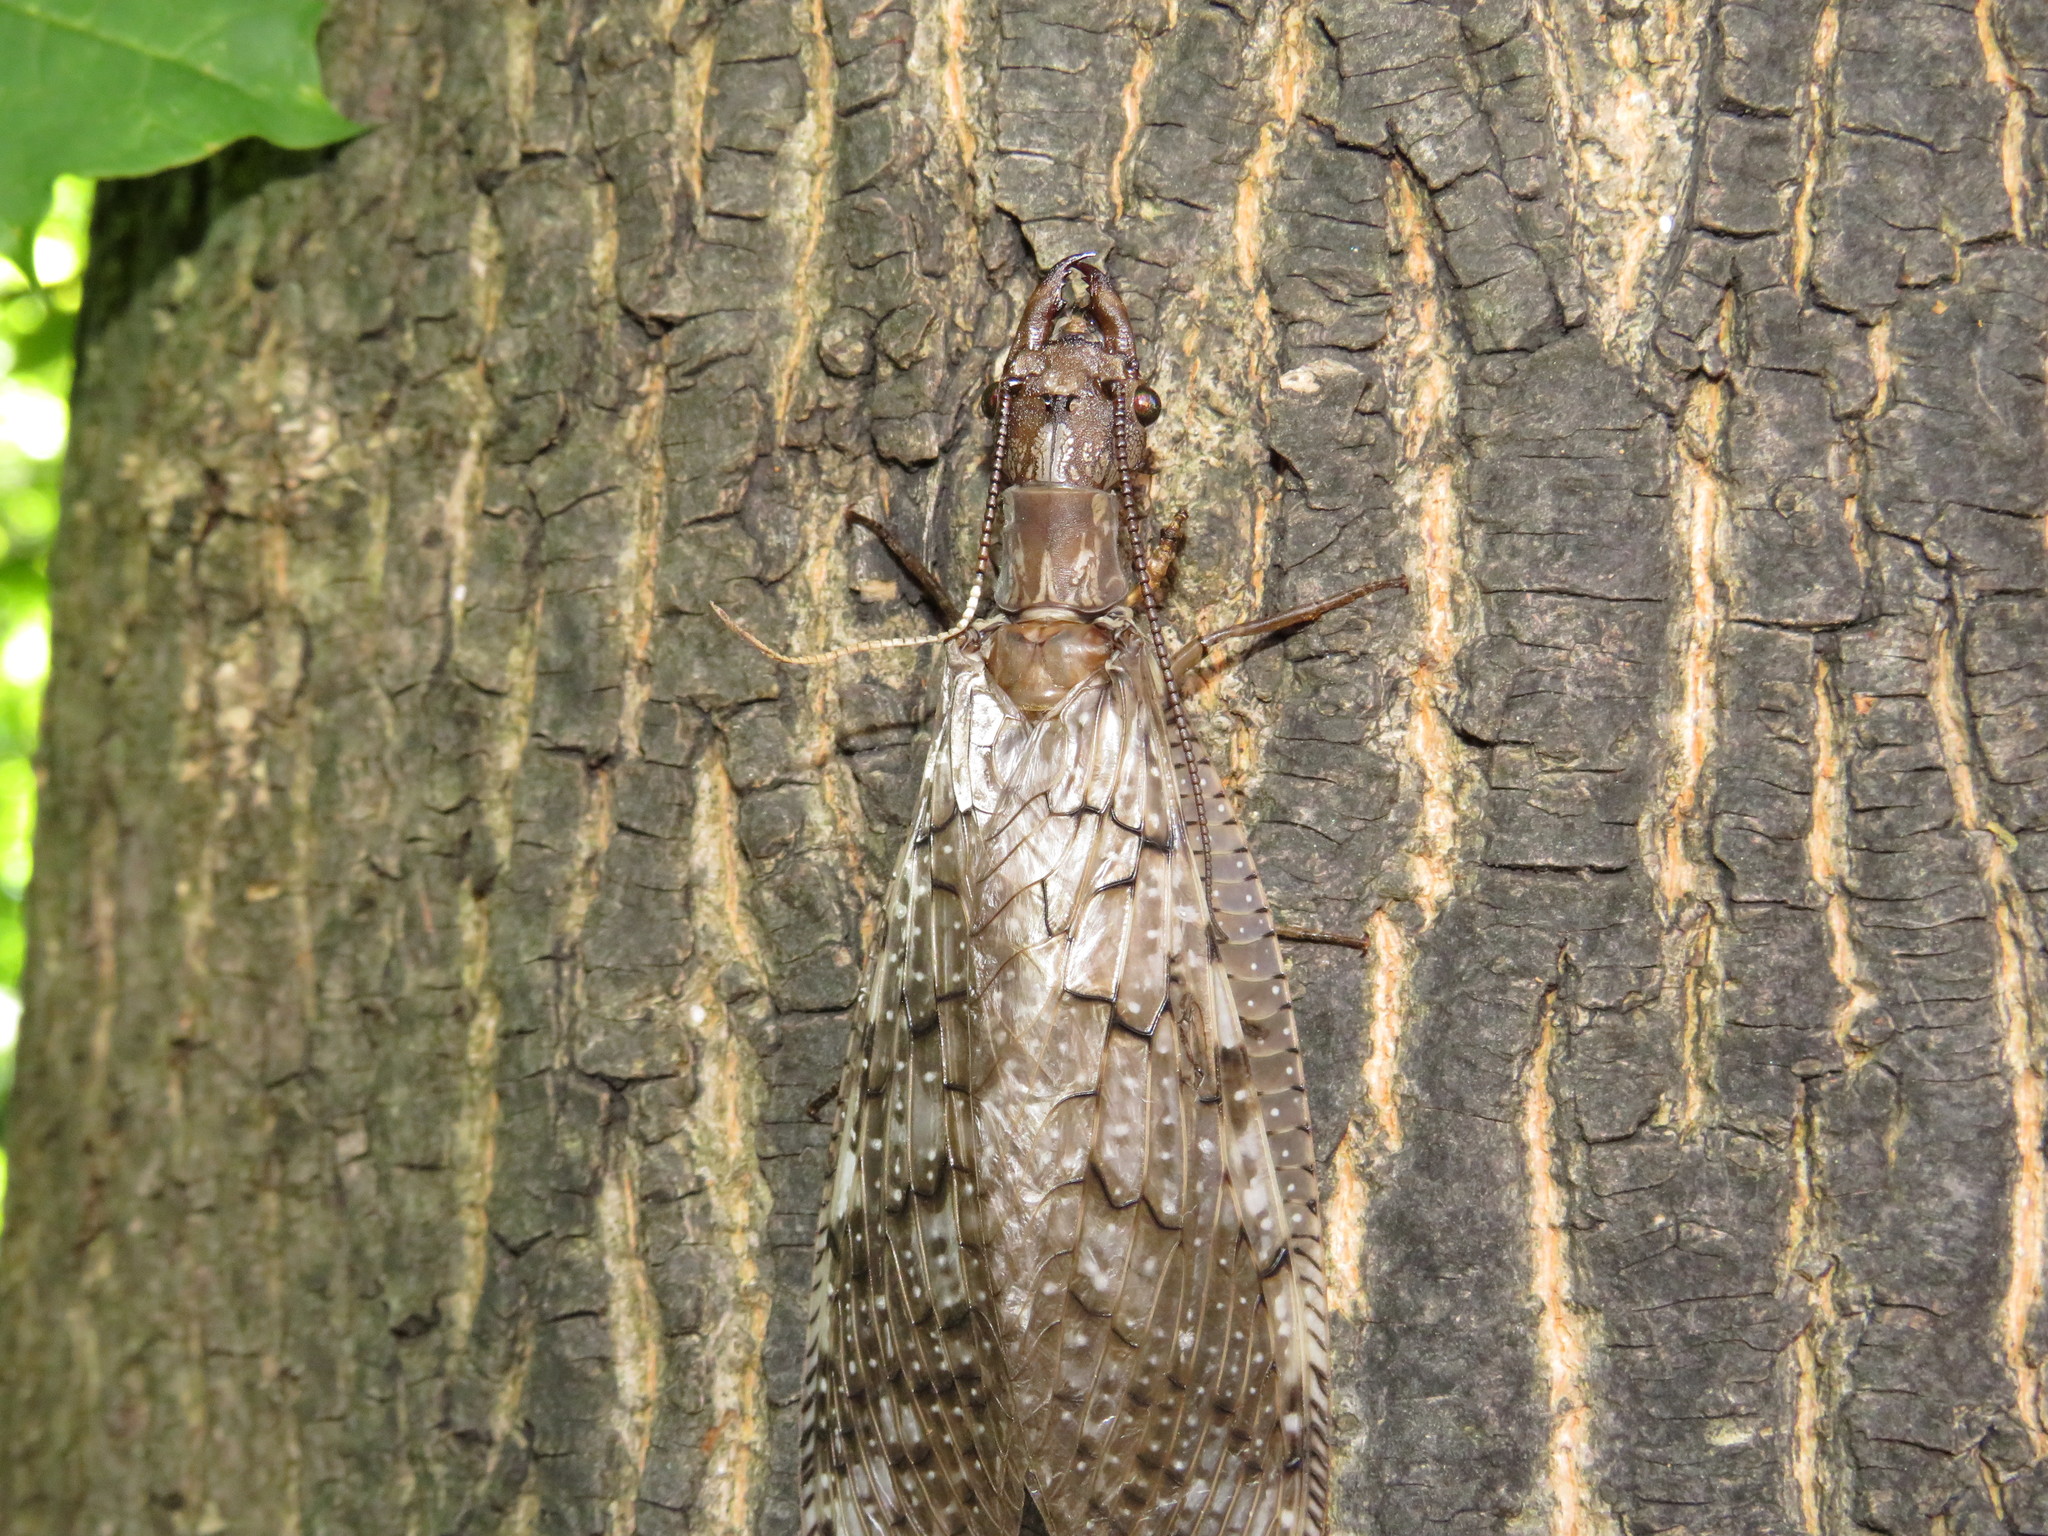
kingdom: Animalia
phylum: Arthropoda
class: Insecta
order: Megaloptera
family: Corydalidae
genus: Corydalus
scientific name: Corydalus cornutus
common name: Dobsonfly
